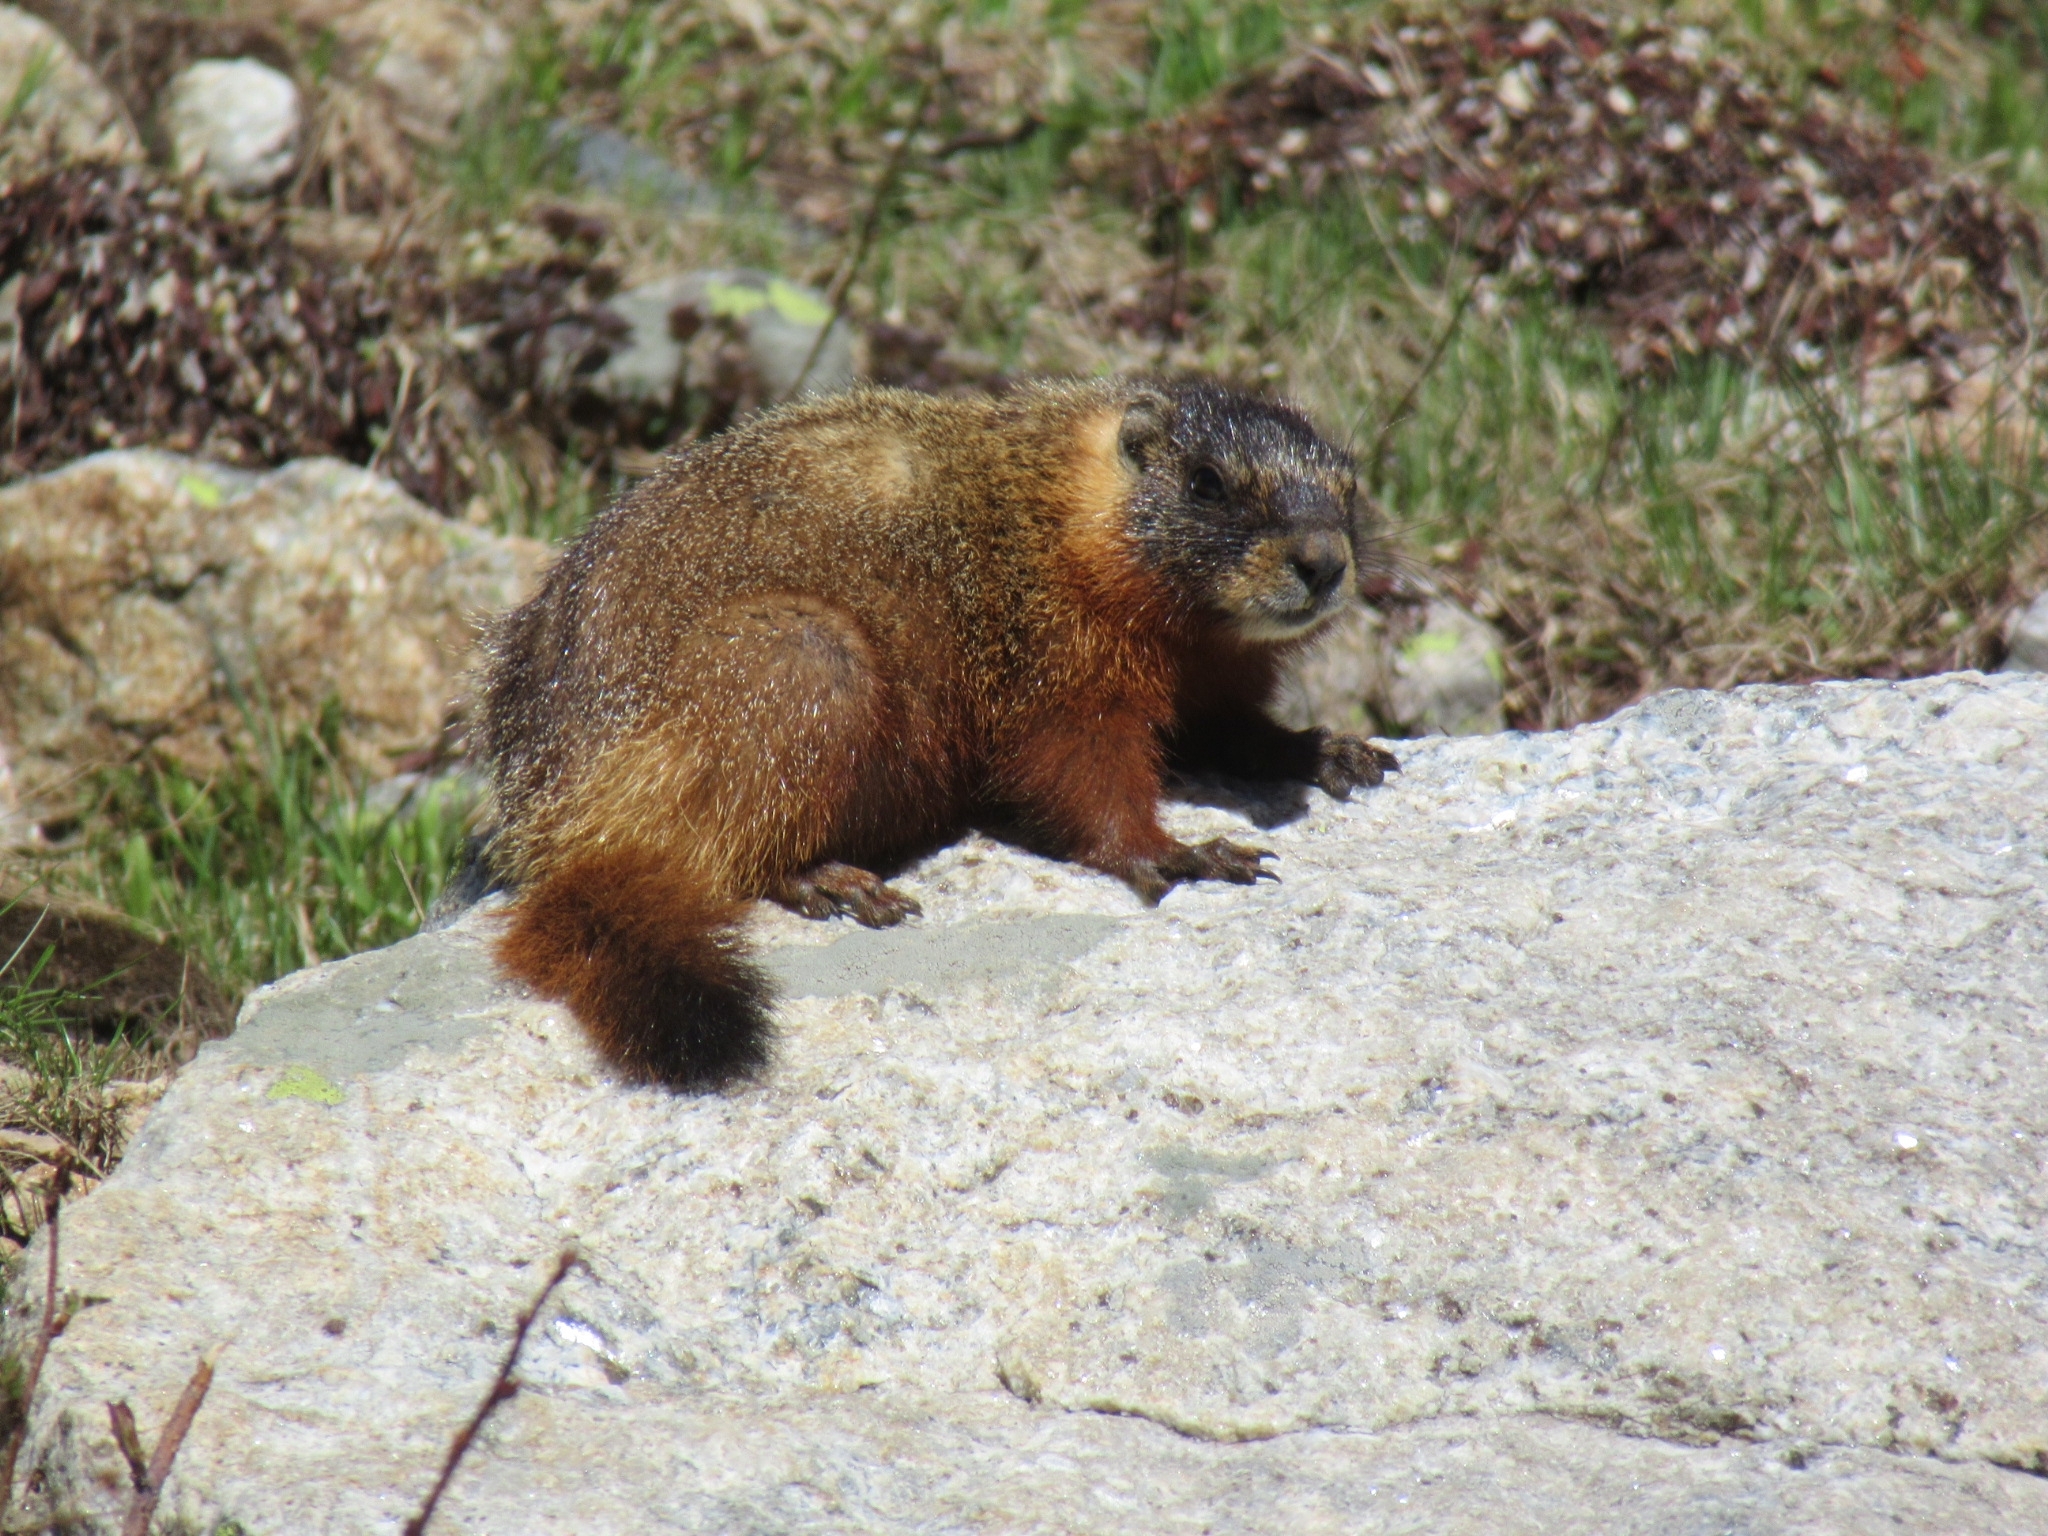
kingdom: Animalia
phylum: Chordata
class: Mammalia
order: Rodentia
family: Sciuridae
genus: Marmota
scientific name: Marmota flaviventris
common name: Yellow-bellied marmot
